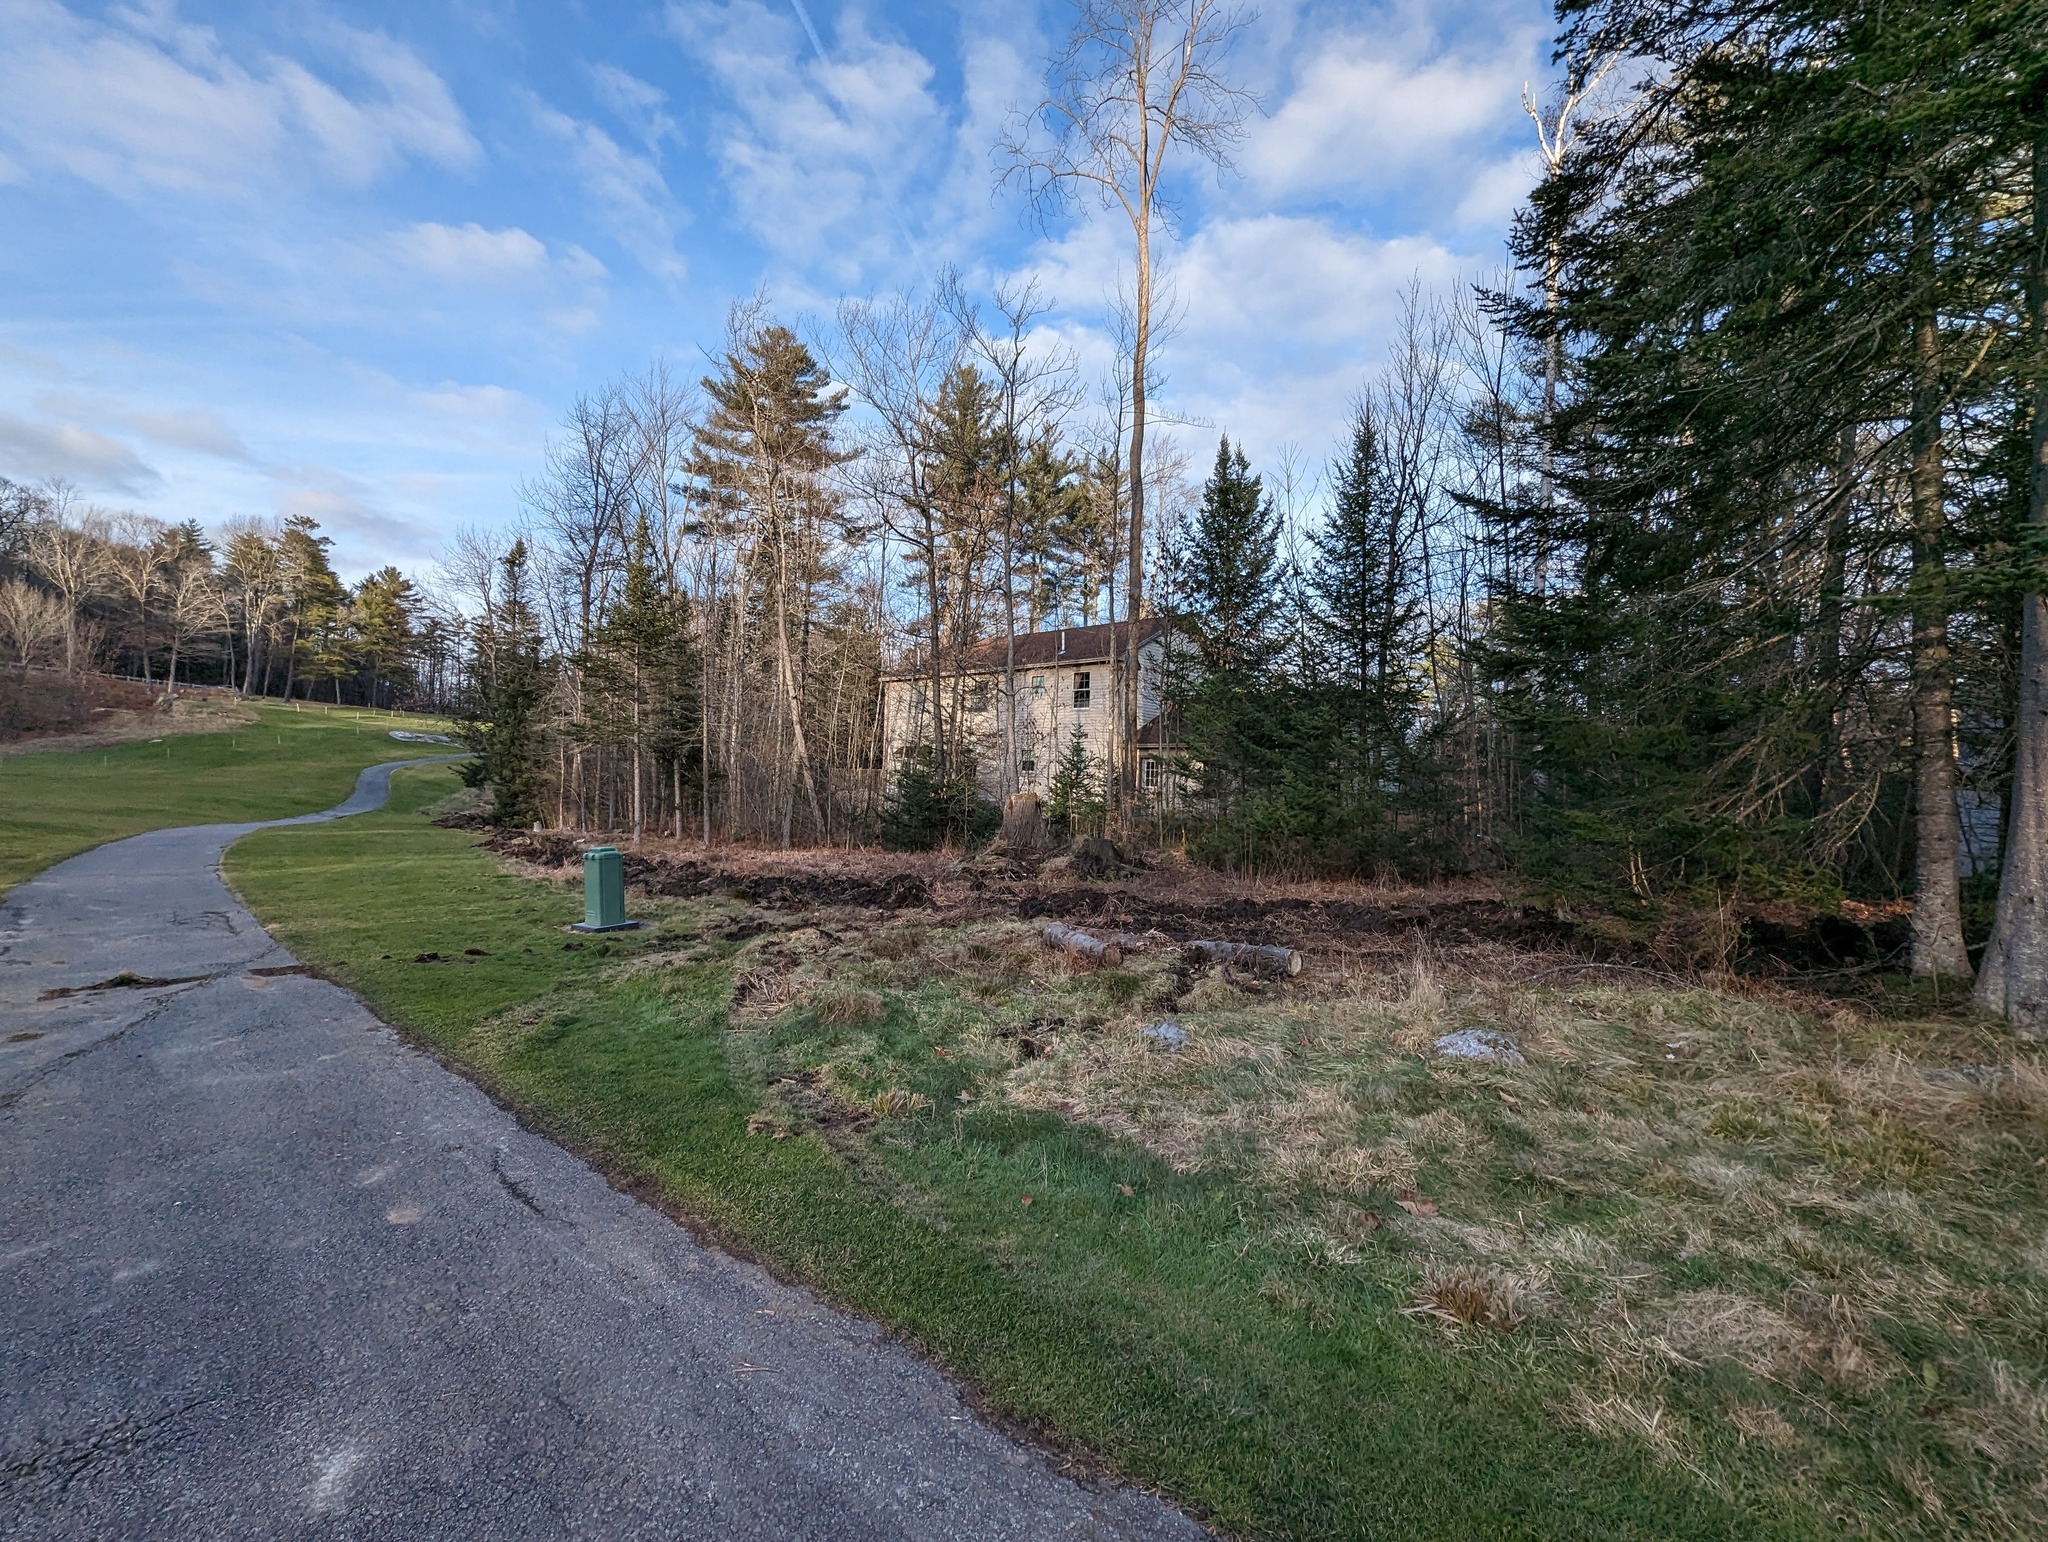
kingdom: Plantae
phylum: Tracheophyta
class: Pinopsida
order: Pinales
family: Pinaceae
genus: Pinus
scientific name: Pinus strobus
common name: Weymouth pine
